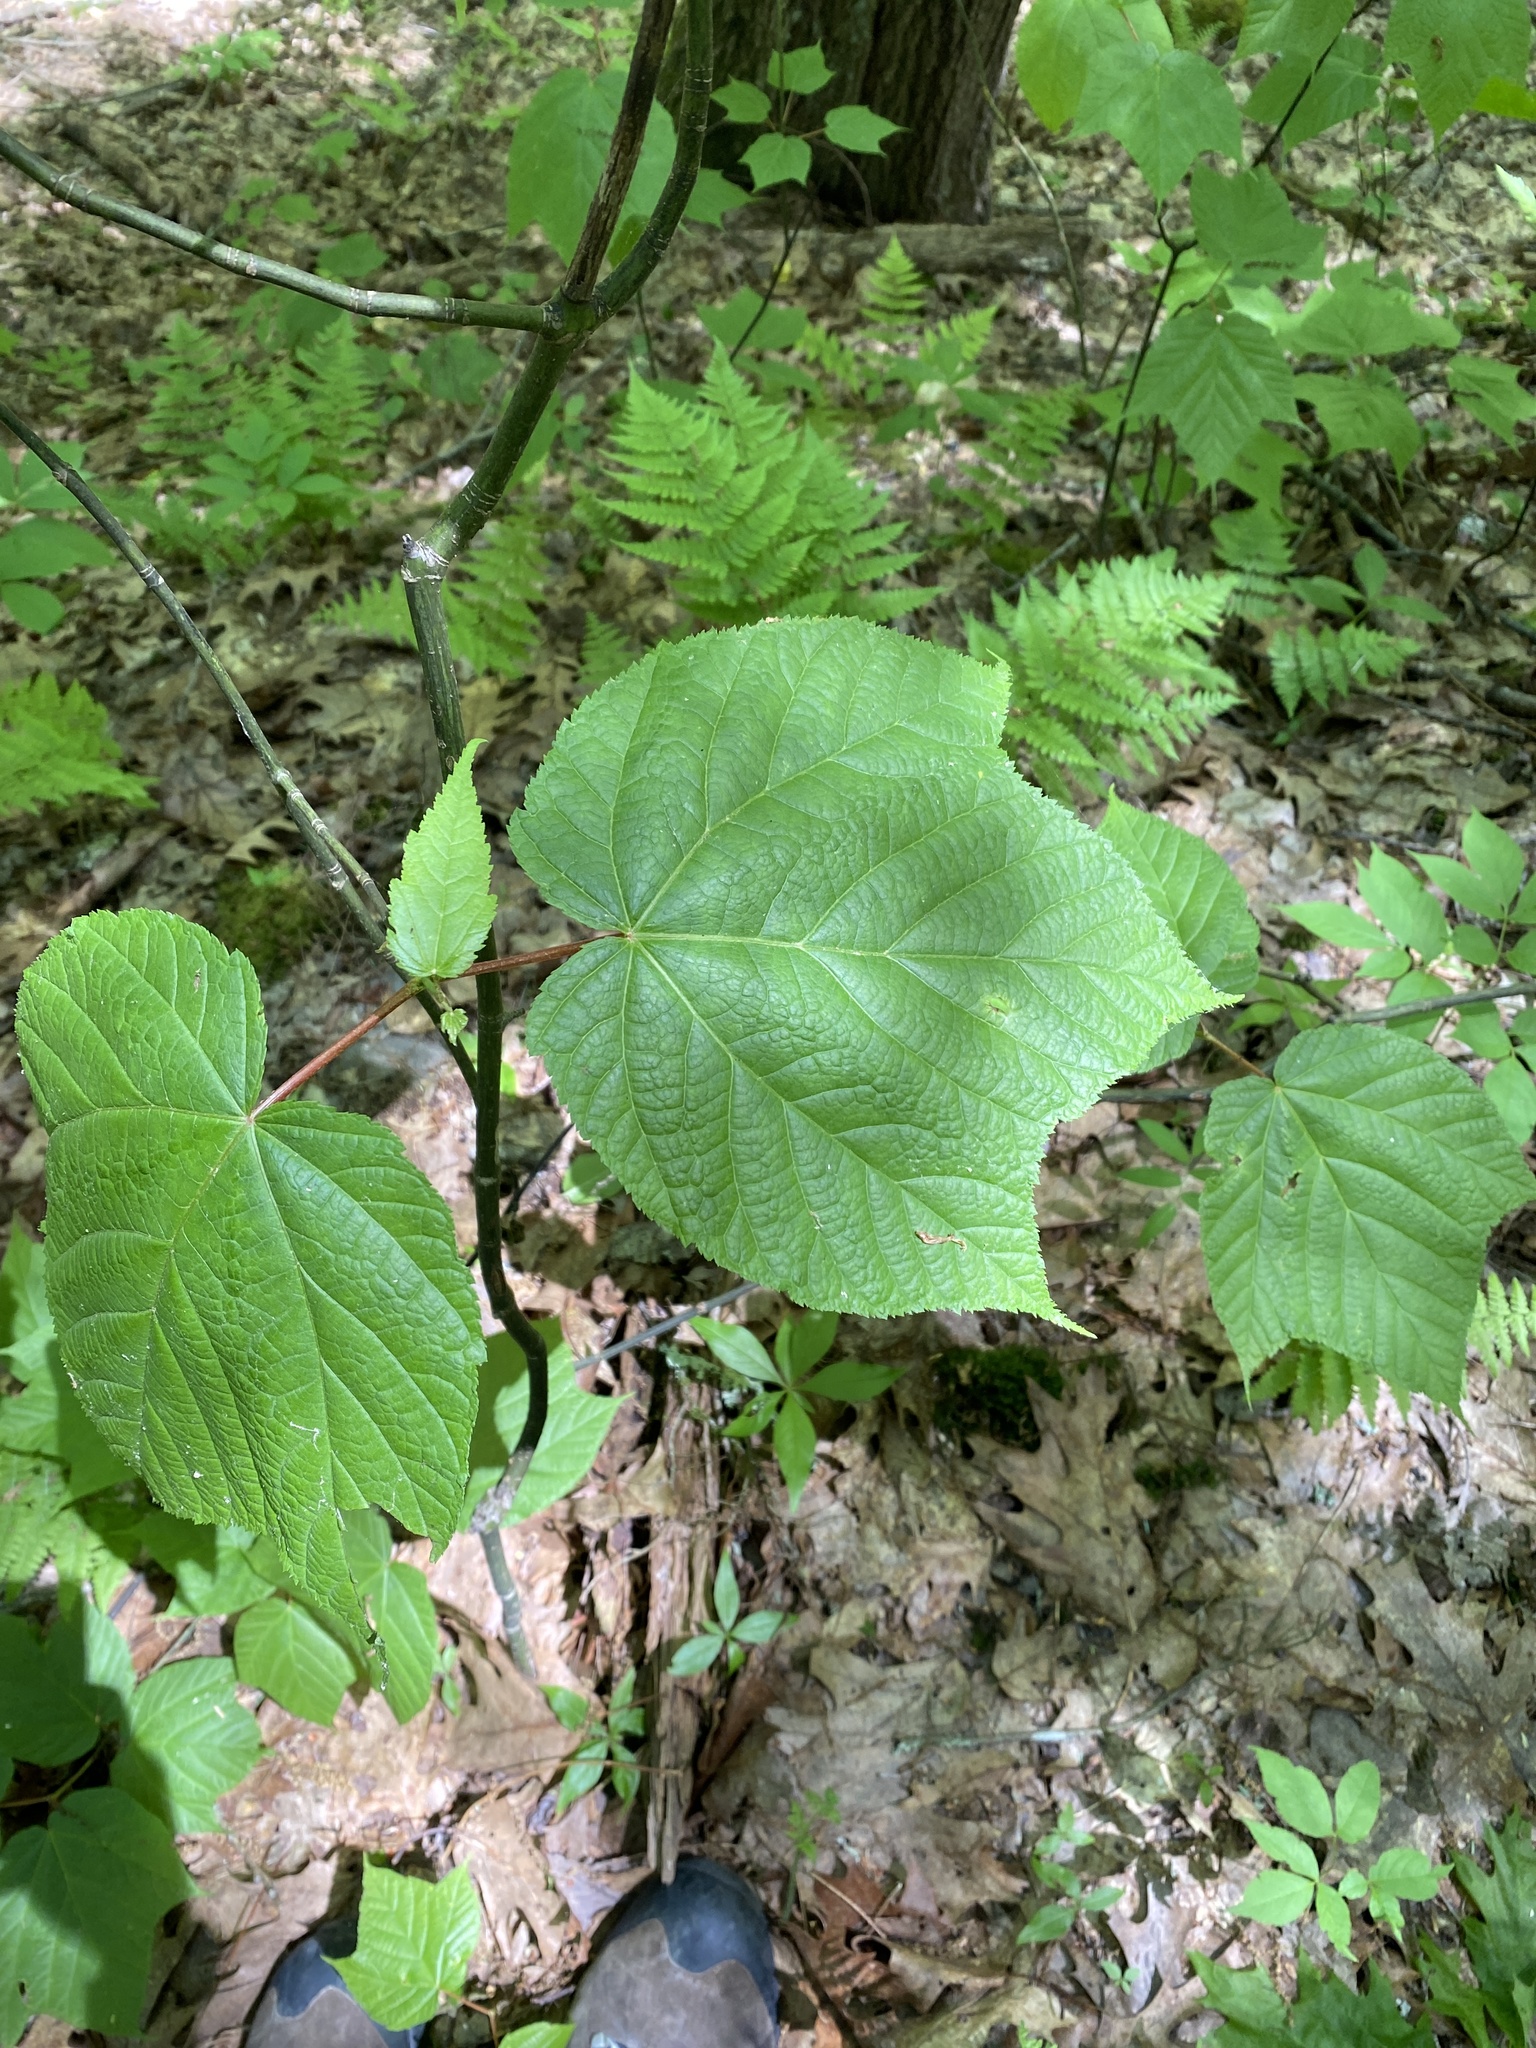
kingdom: Plantae
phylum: Tracheophyta
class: Magnoliopsida
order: Sapindales
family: Sapindaceae
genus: Acer
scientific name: Acer pensylvanicum
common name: Moosewood
